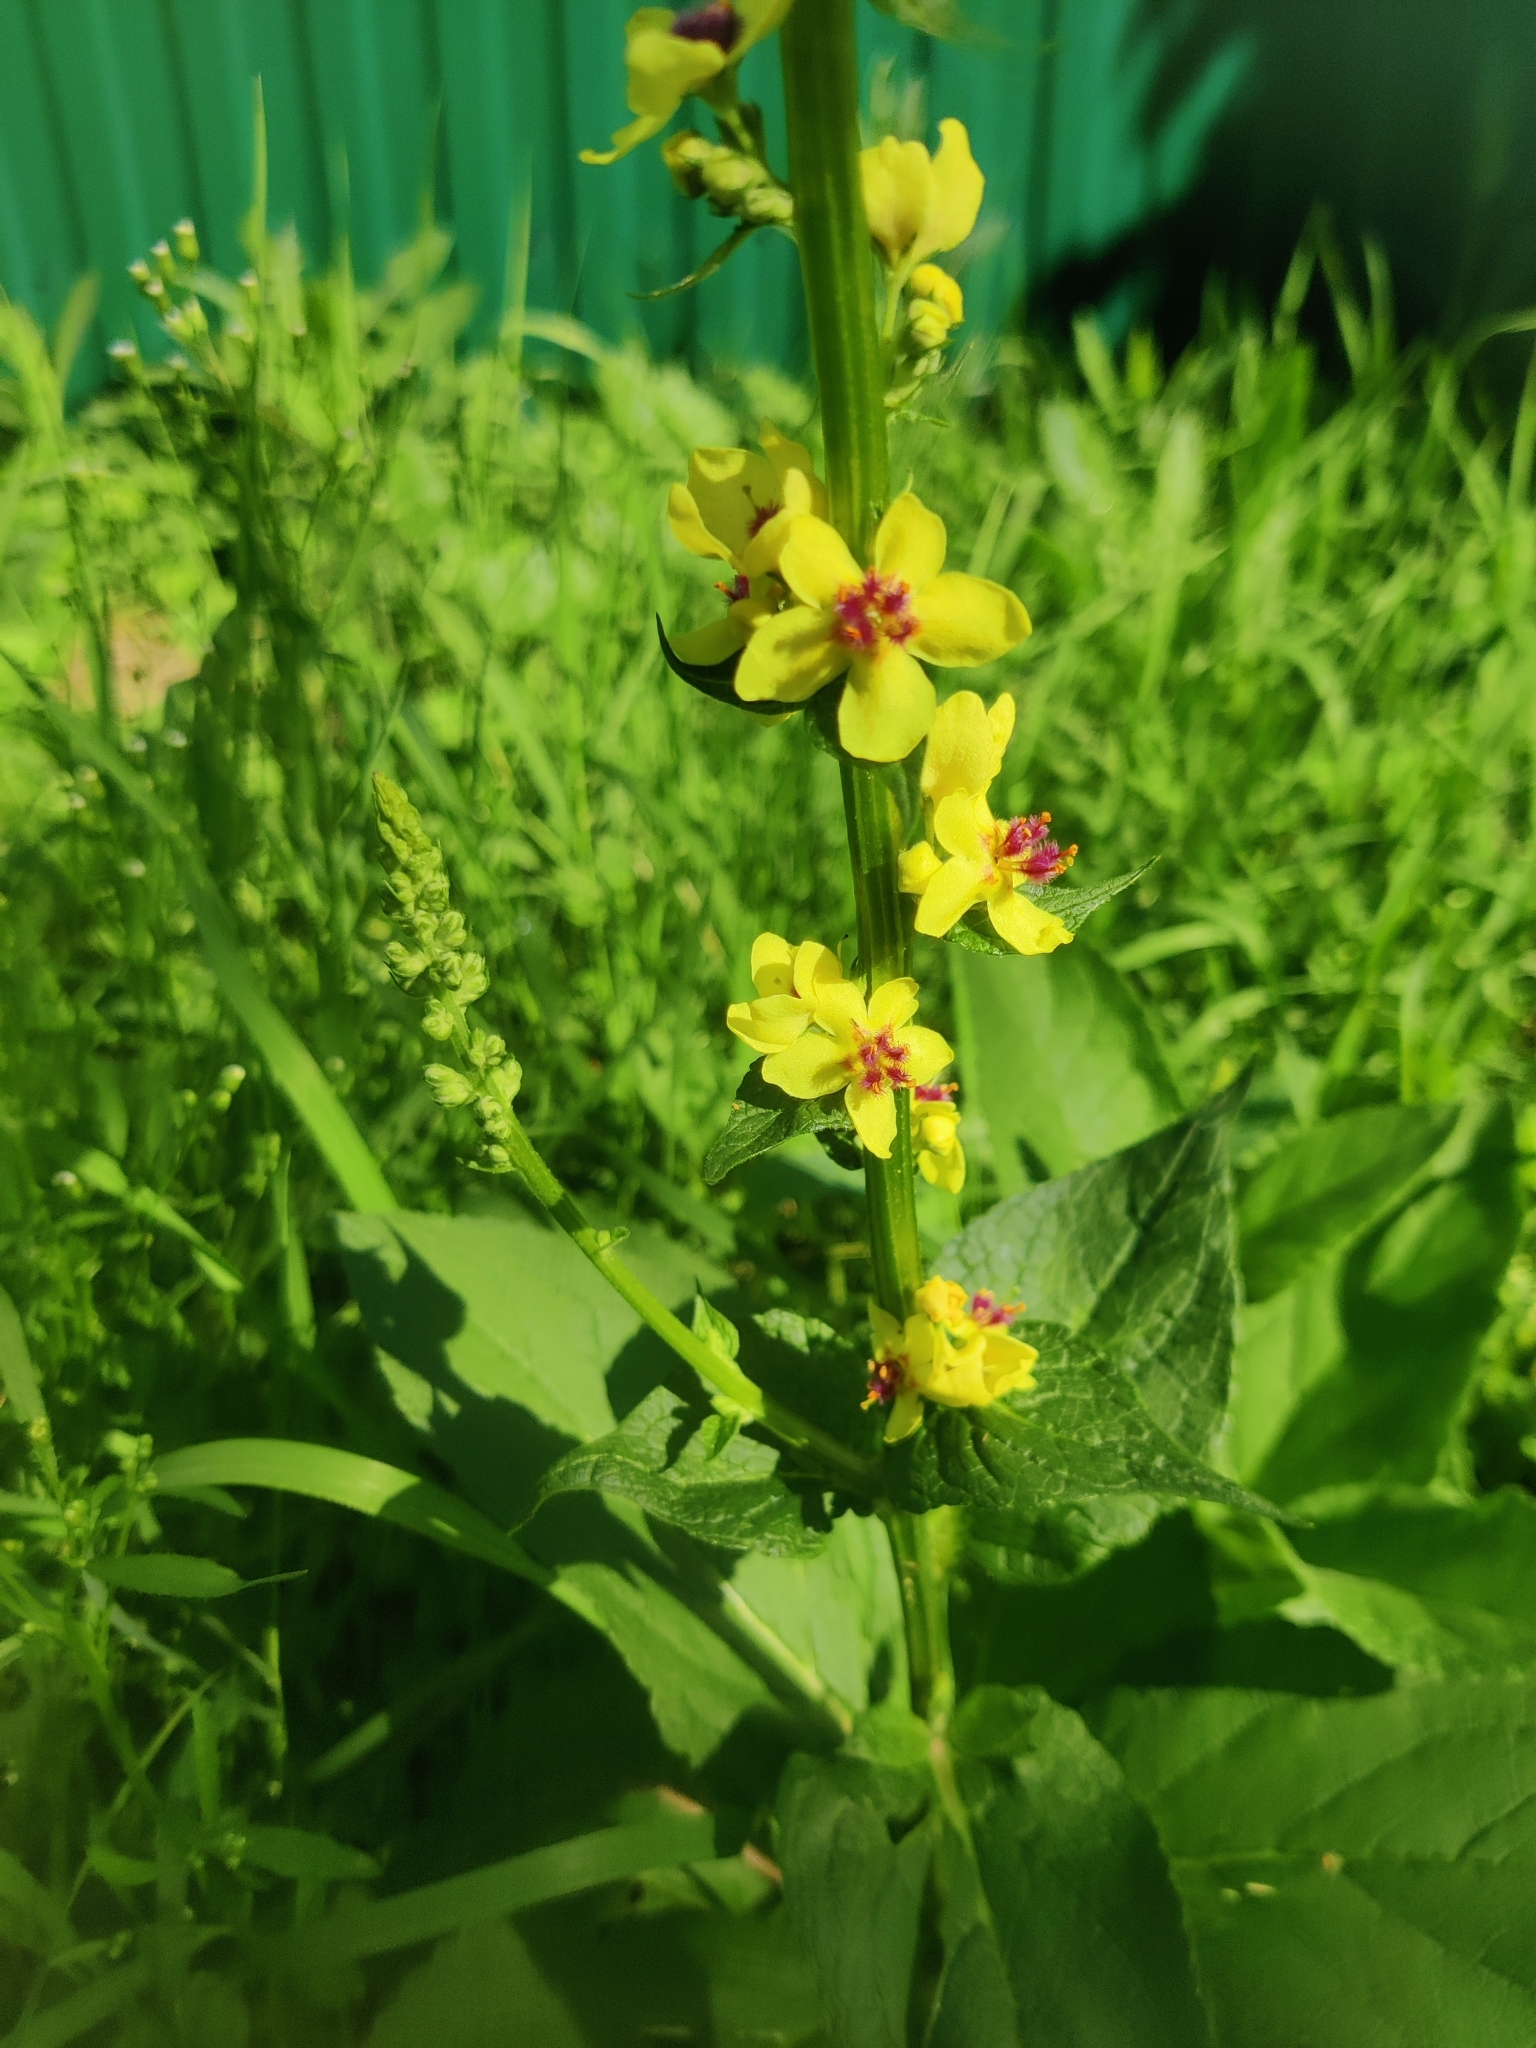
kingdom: Plantae
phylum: Tracheophyta
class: Magnoliopsida
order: Lamiales
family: Scrophulariaceae
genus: Verbascum
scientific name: Verbascum nigrum
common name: Dark mullein
